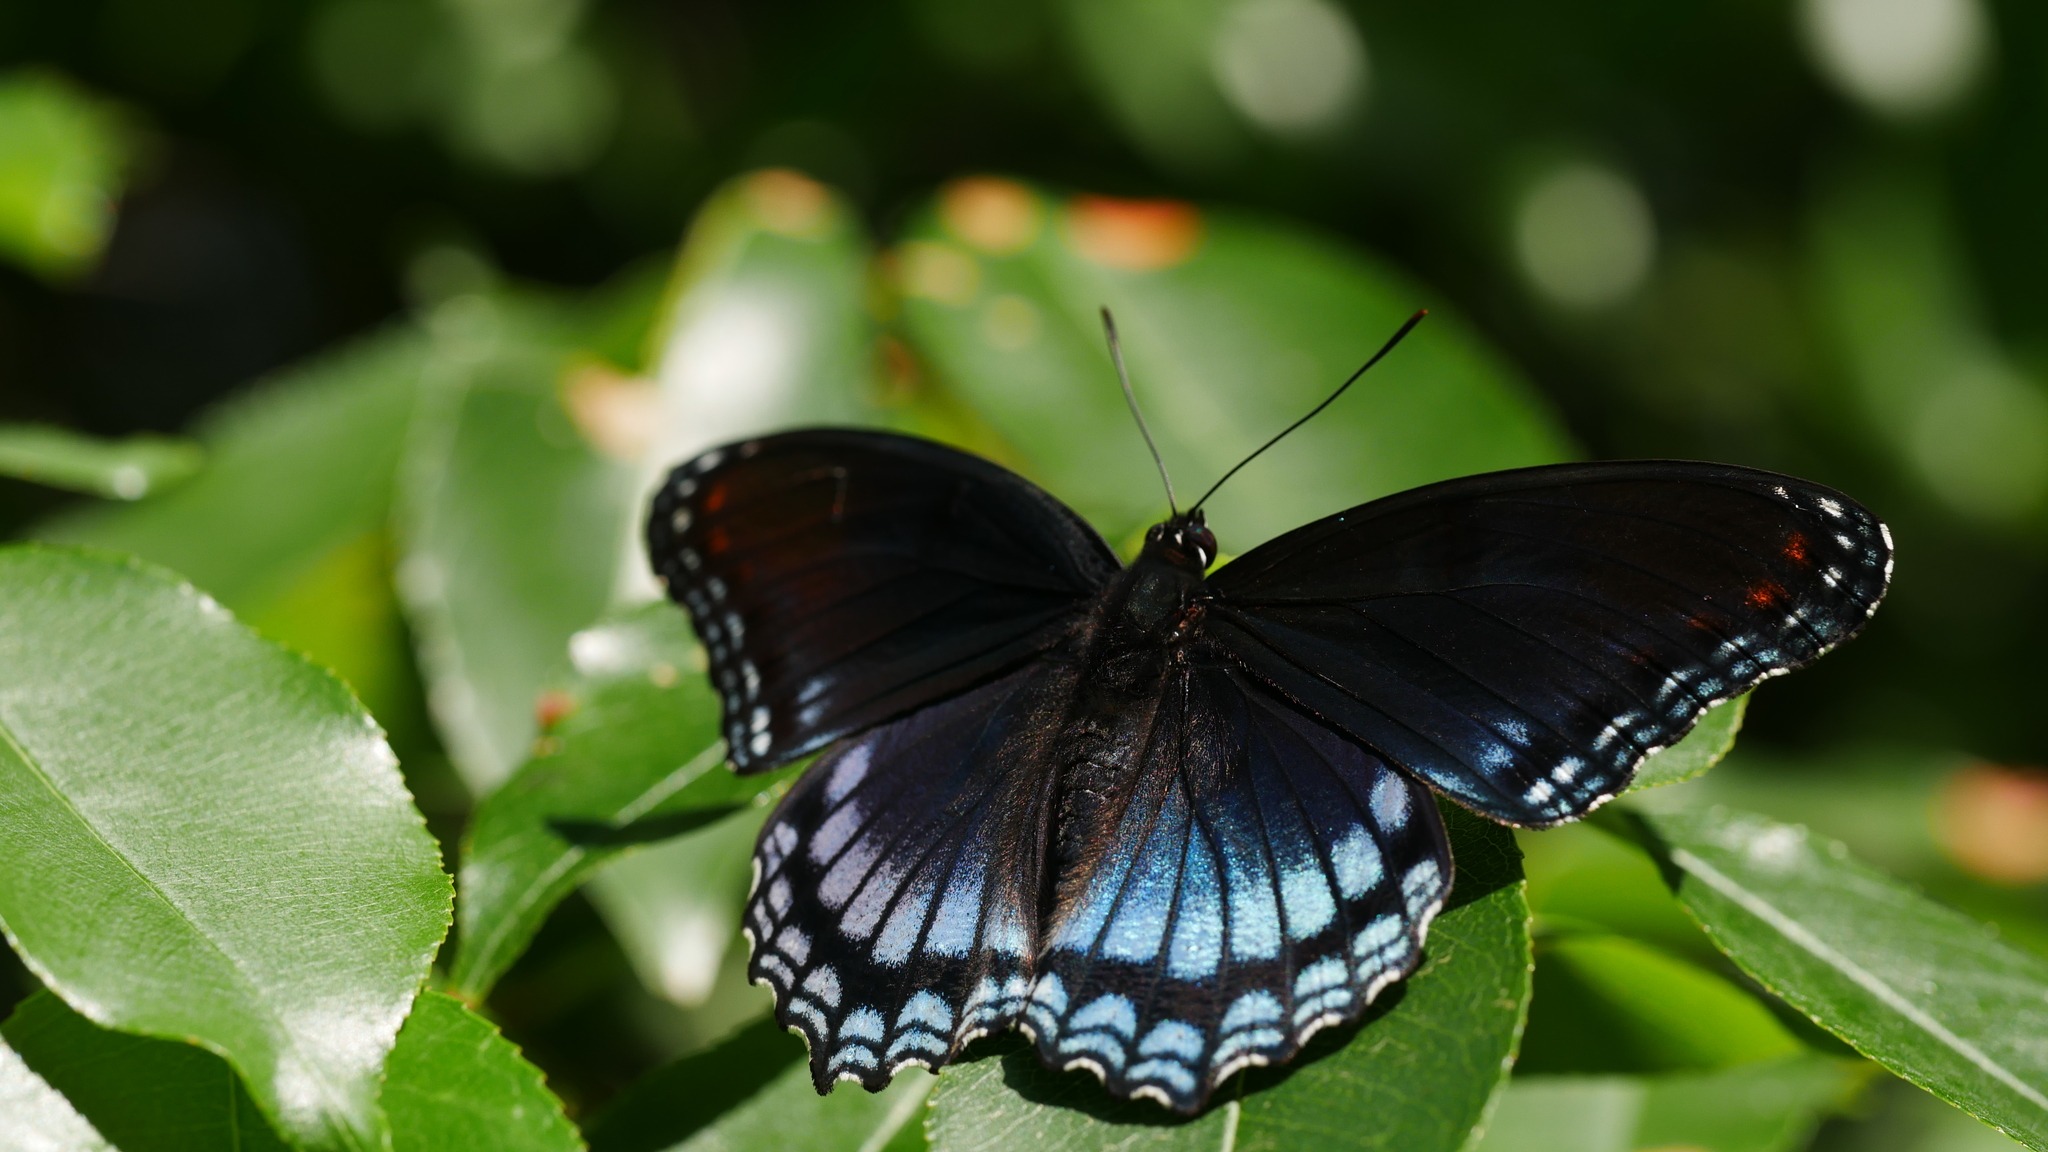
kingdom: Animalia
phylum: Arthropoda
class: Insecta
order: Lepidoptera
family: Nymphalidae
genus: Limenitis
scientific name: Limenitis astyanax
